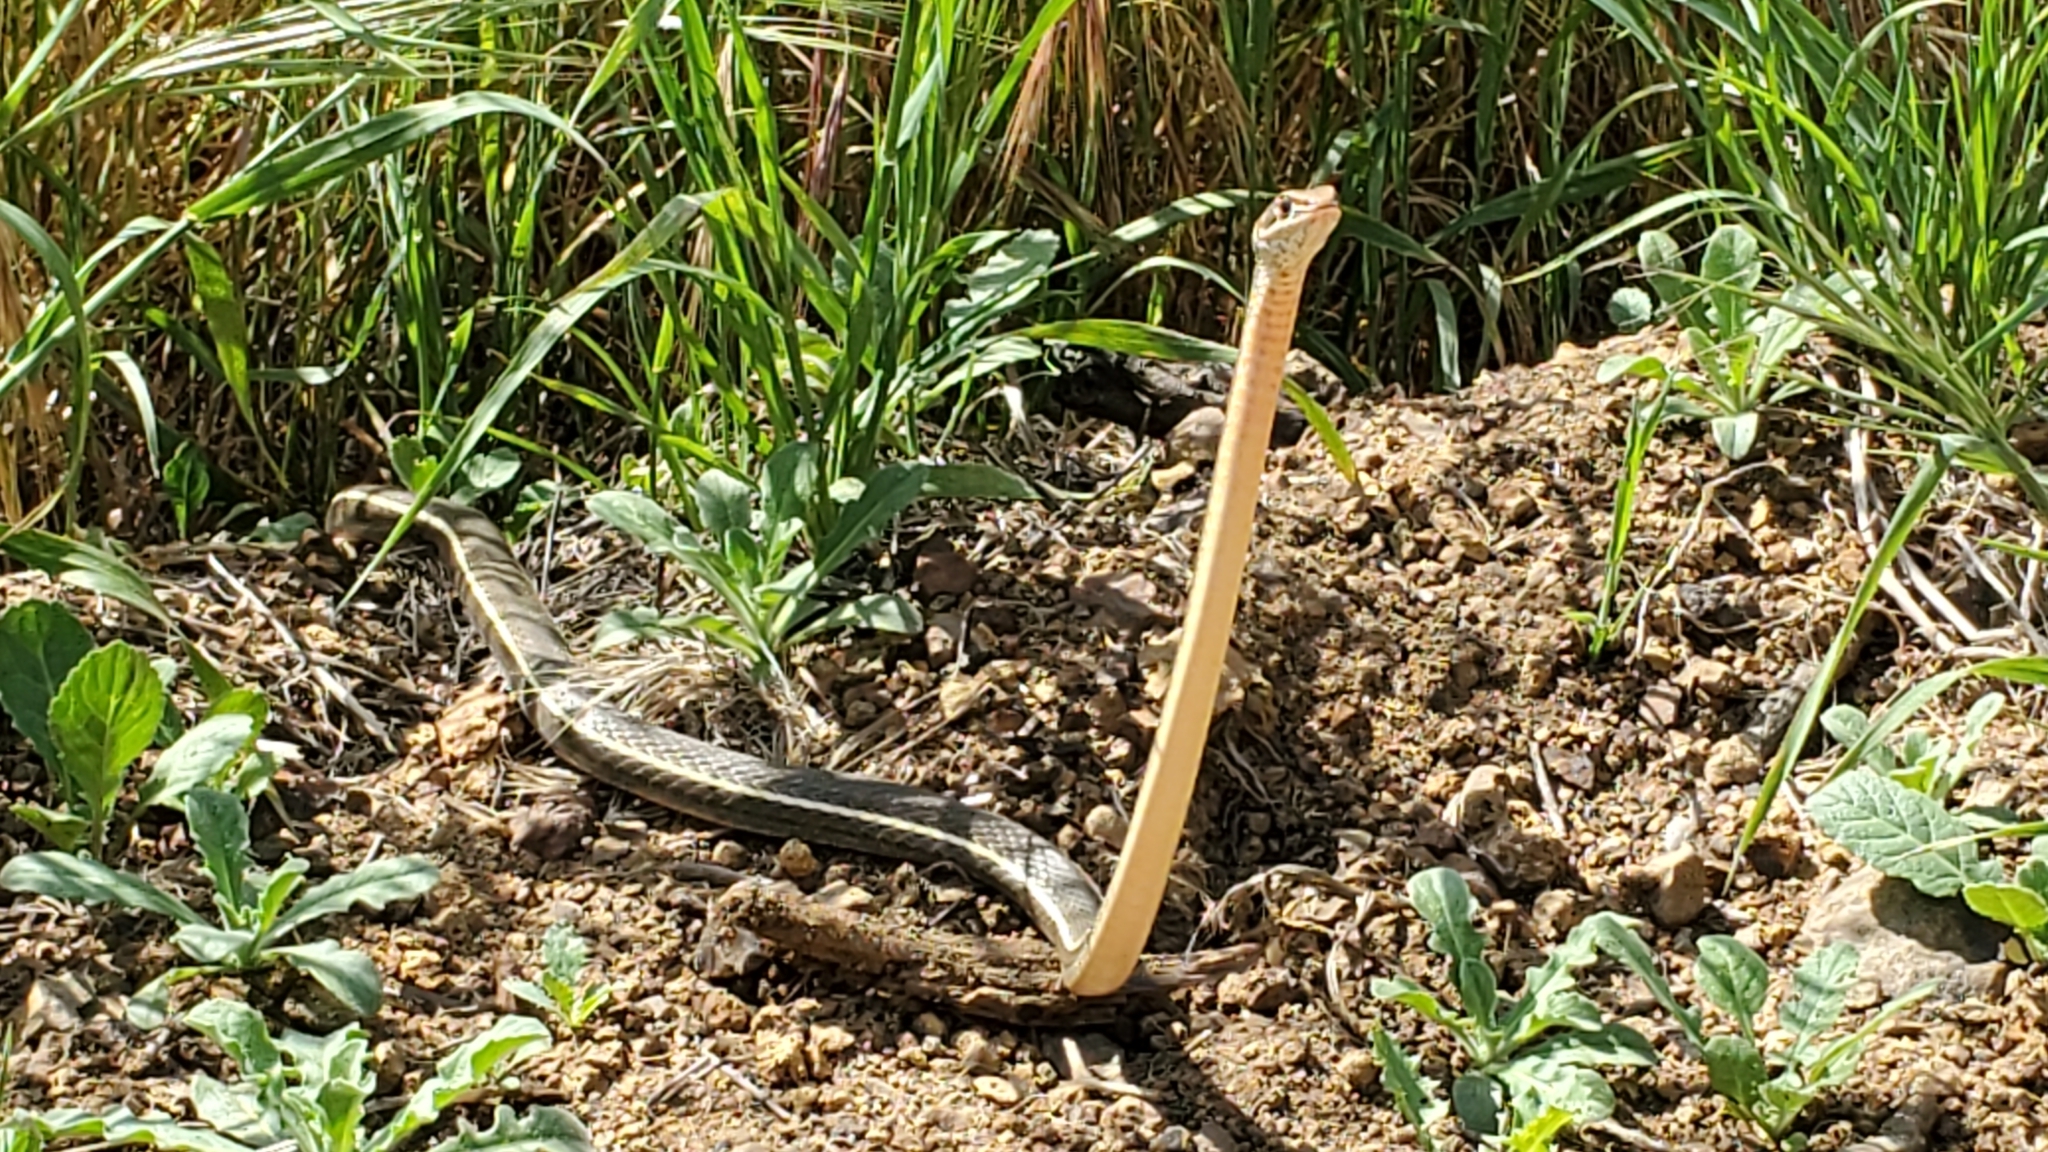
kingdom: Animalia
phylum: Chordata
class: Squamata
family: Colubridae
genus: Masticophis
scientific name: Masticophis lateralis
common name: Striped racer
